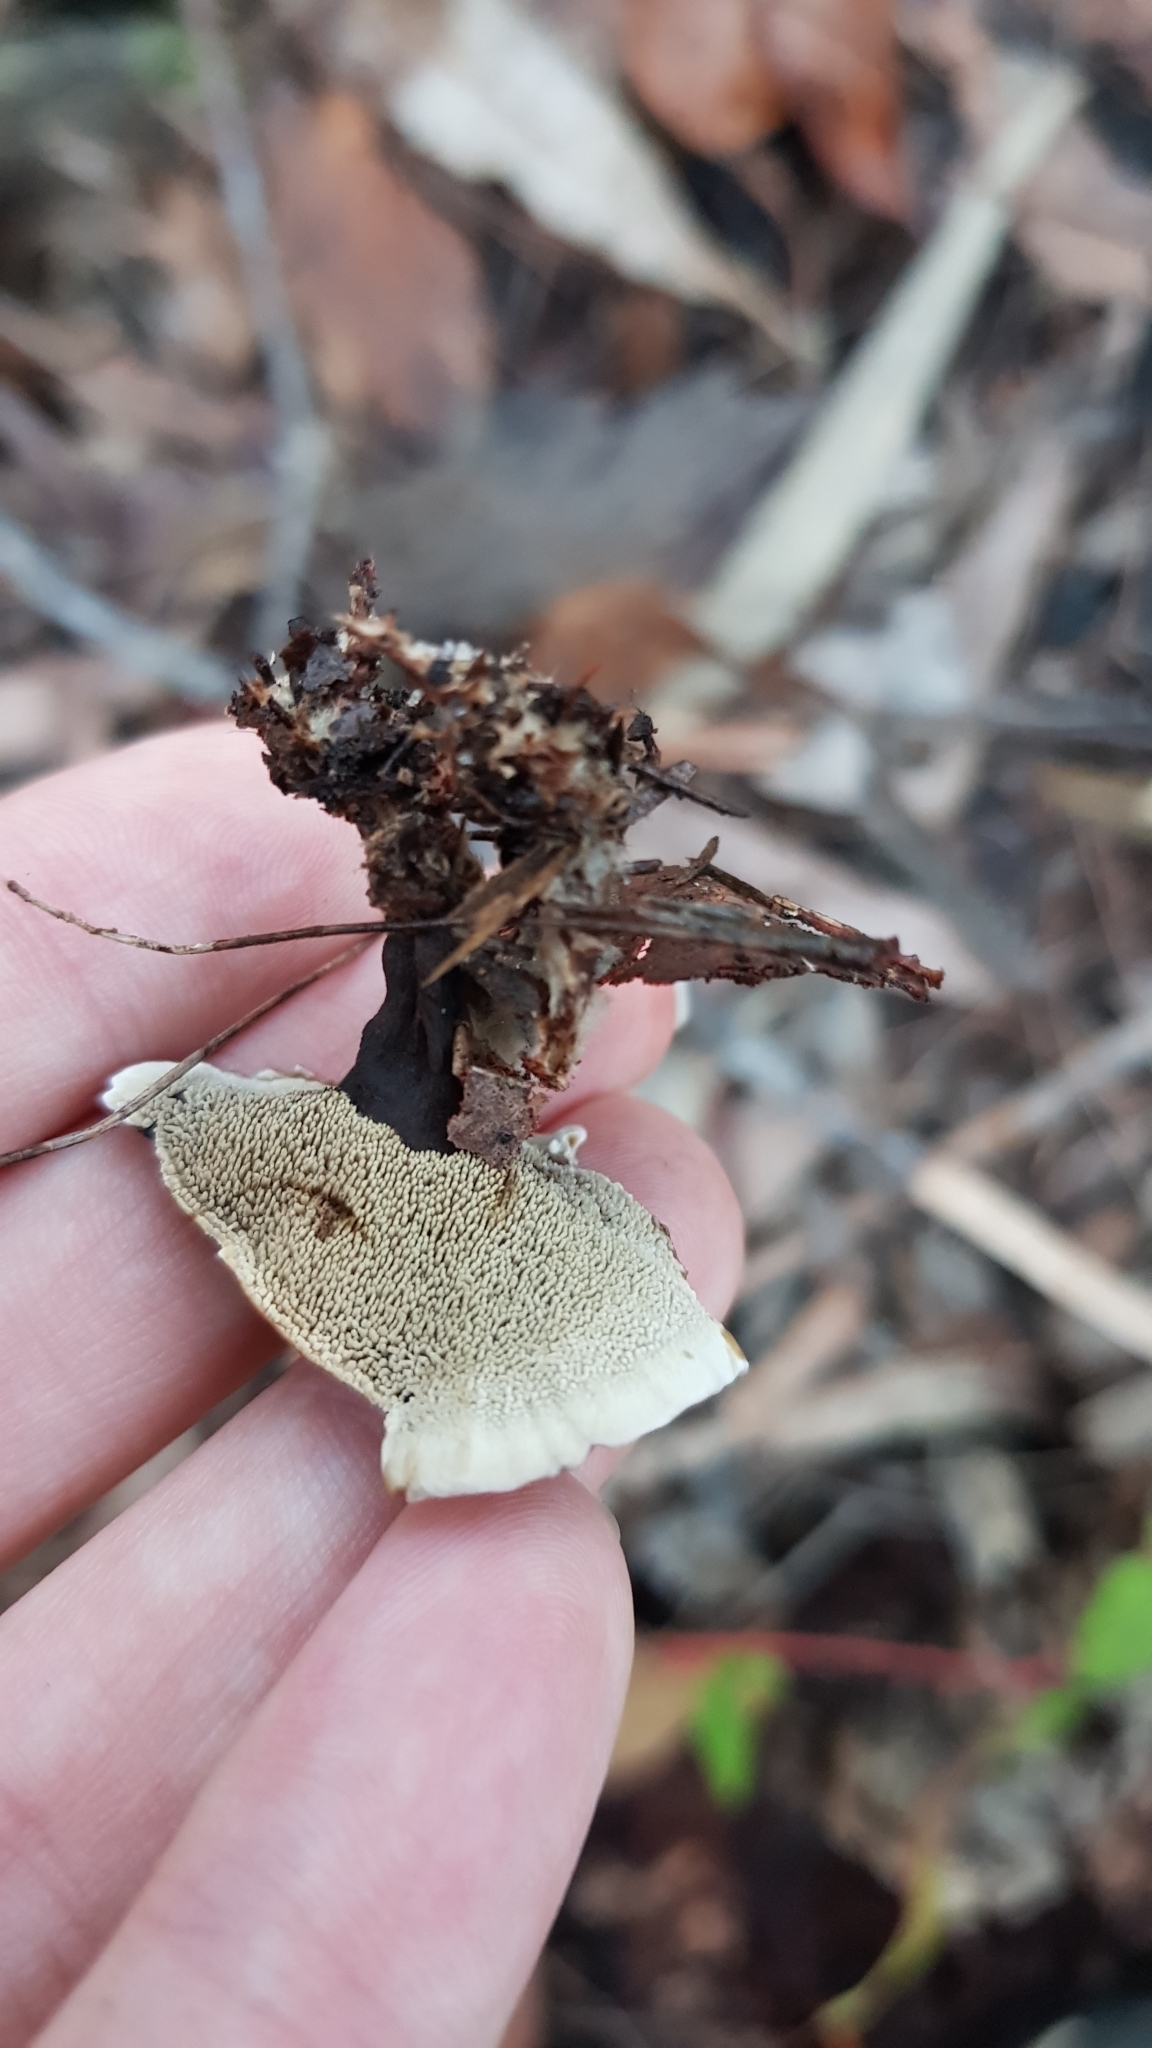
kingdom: Fungi
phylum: Basidiomycota
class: Agaricomycetes
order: Thelephorales
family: Thelephoraceae
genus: Phellodon
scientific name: Phellodon niger
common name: Black tooth
